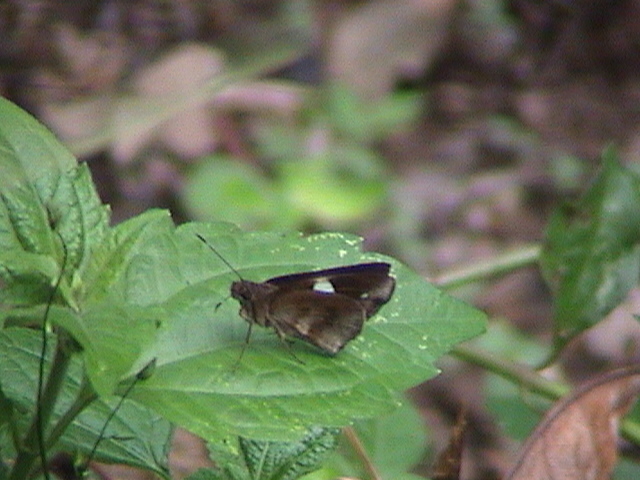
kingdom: Animalia
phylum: Arthropoda
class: Insecta
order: Lepidoptera
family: Hesperiidae
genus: Notocrypta
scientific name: Notocrypta paralysos
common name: Common banded demon
